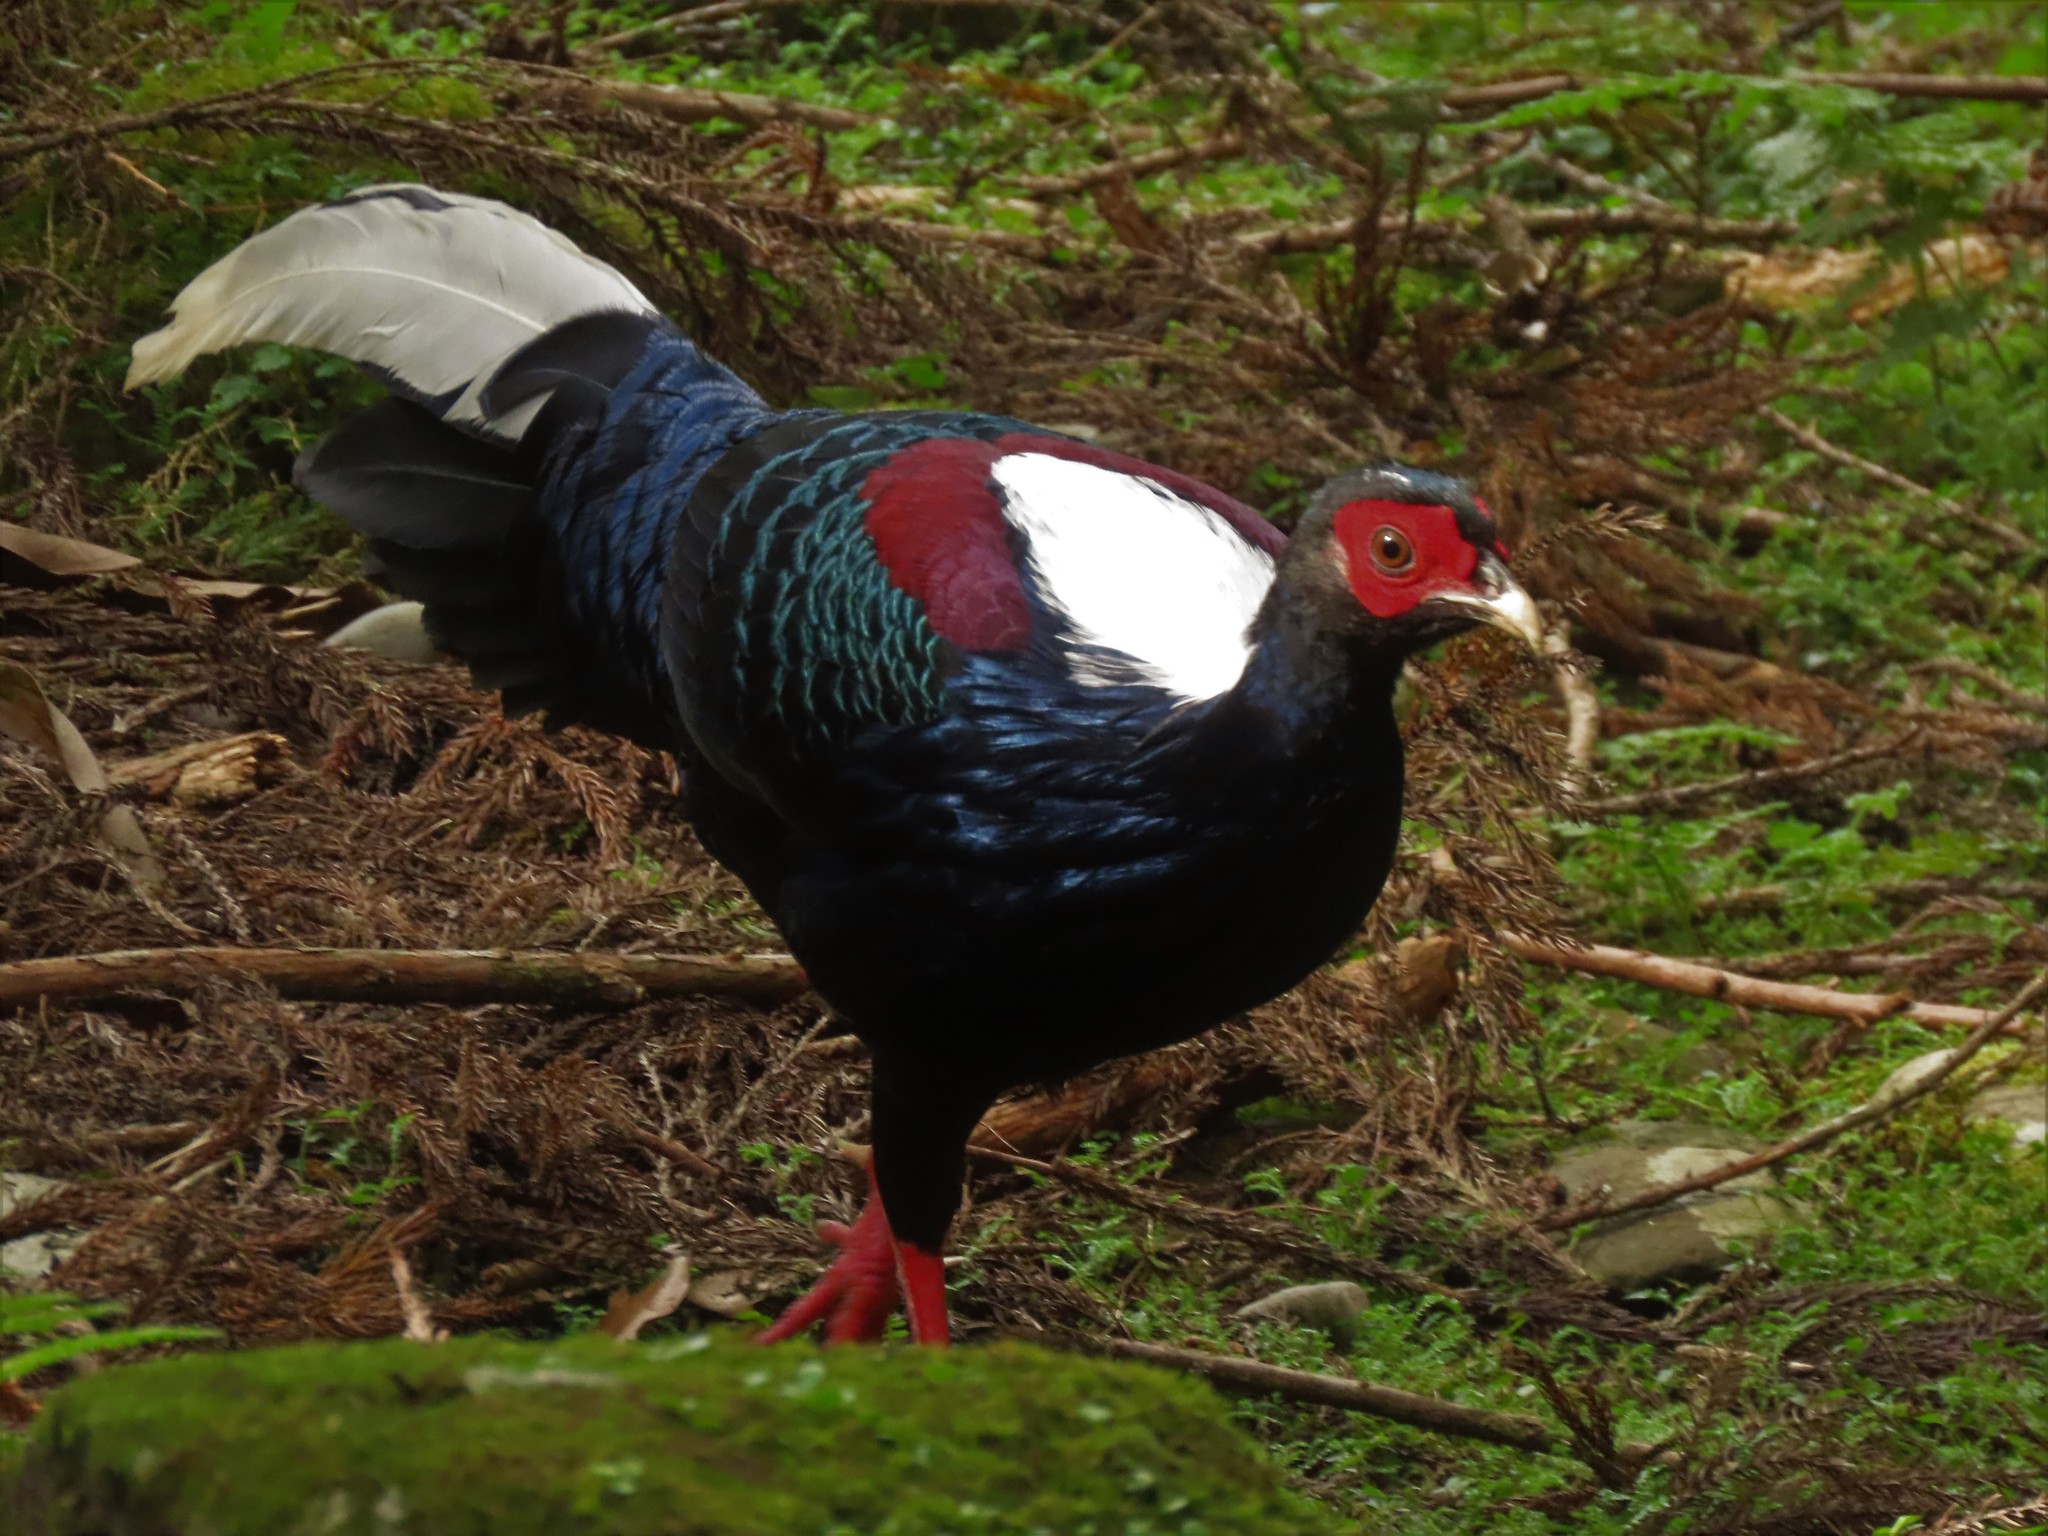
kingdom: Animalia
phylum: Chordata
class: Aves
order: Galliformes
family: Phasianidae
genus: Lophura
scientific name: Lophura swinhoii
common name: Swinhoe's pheasant
